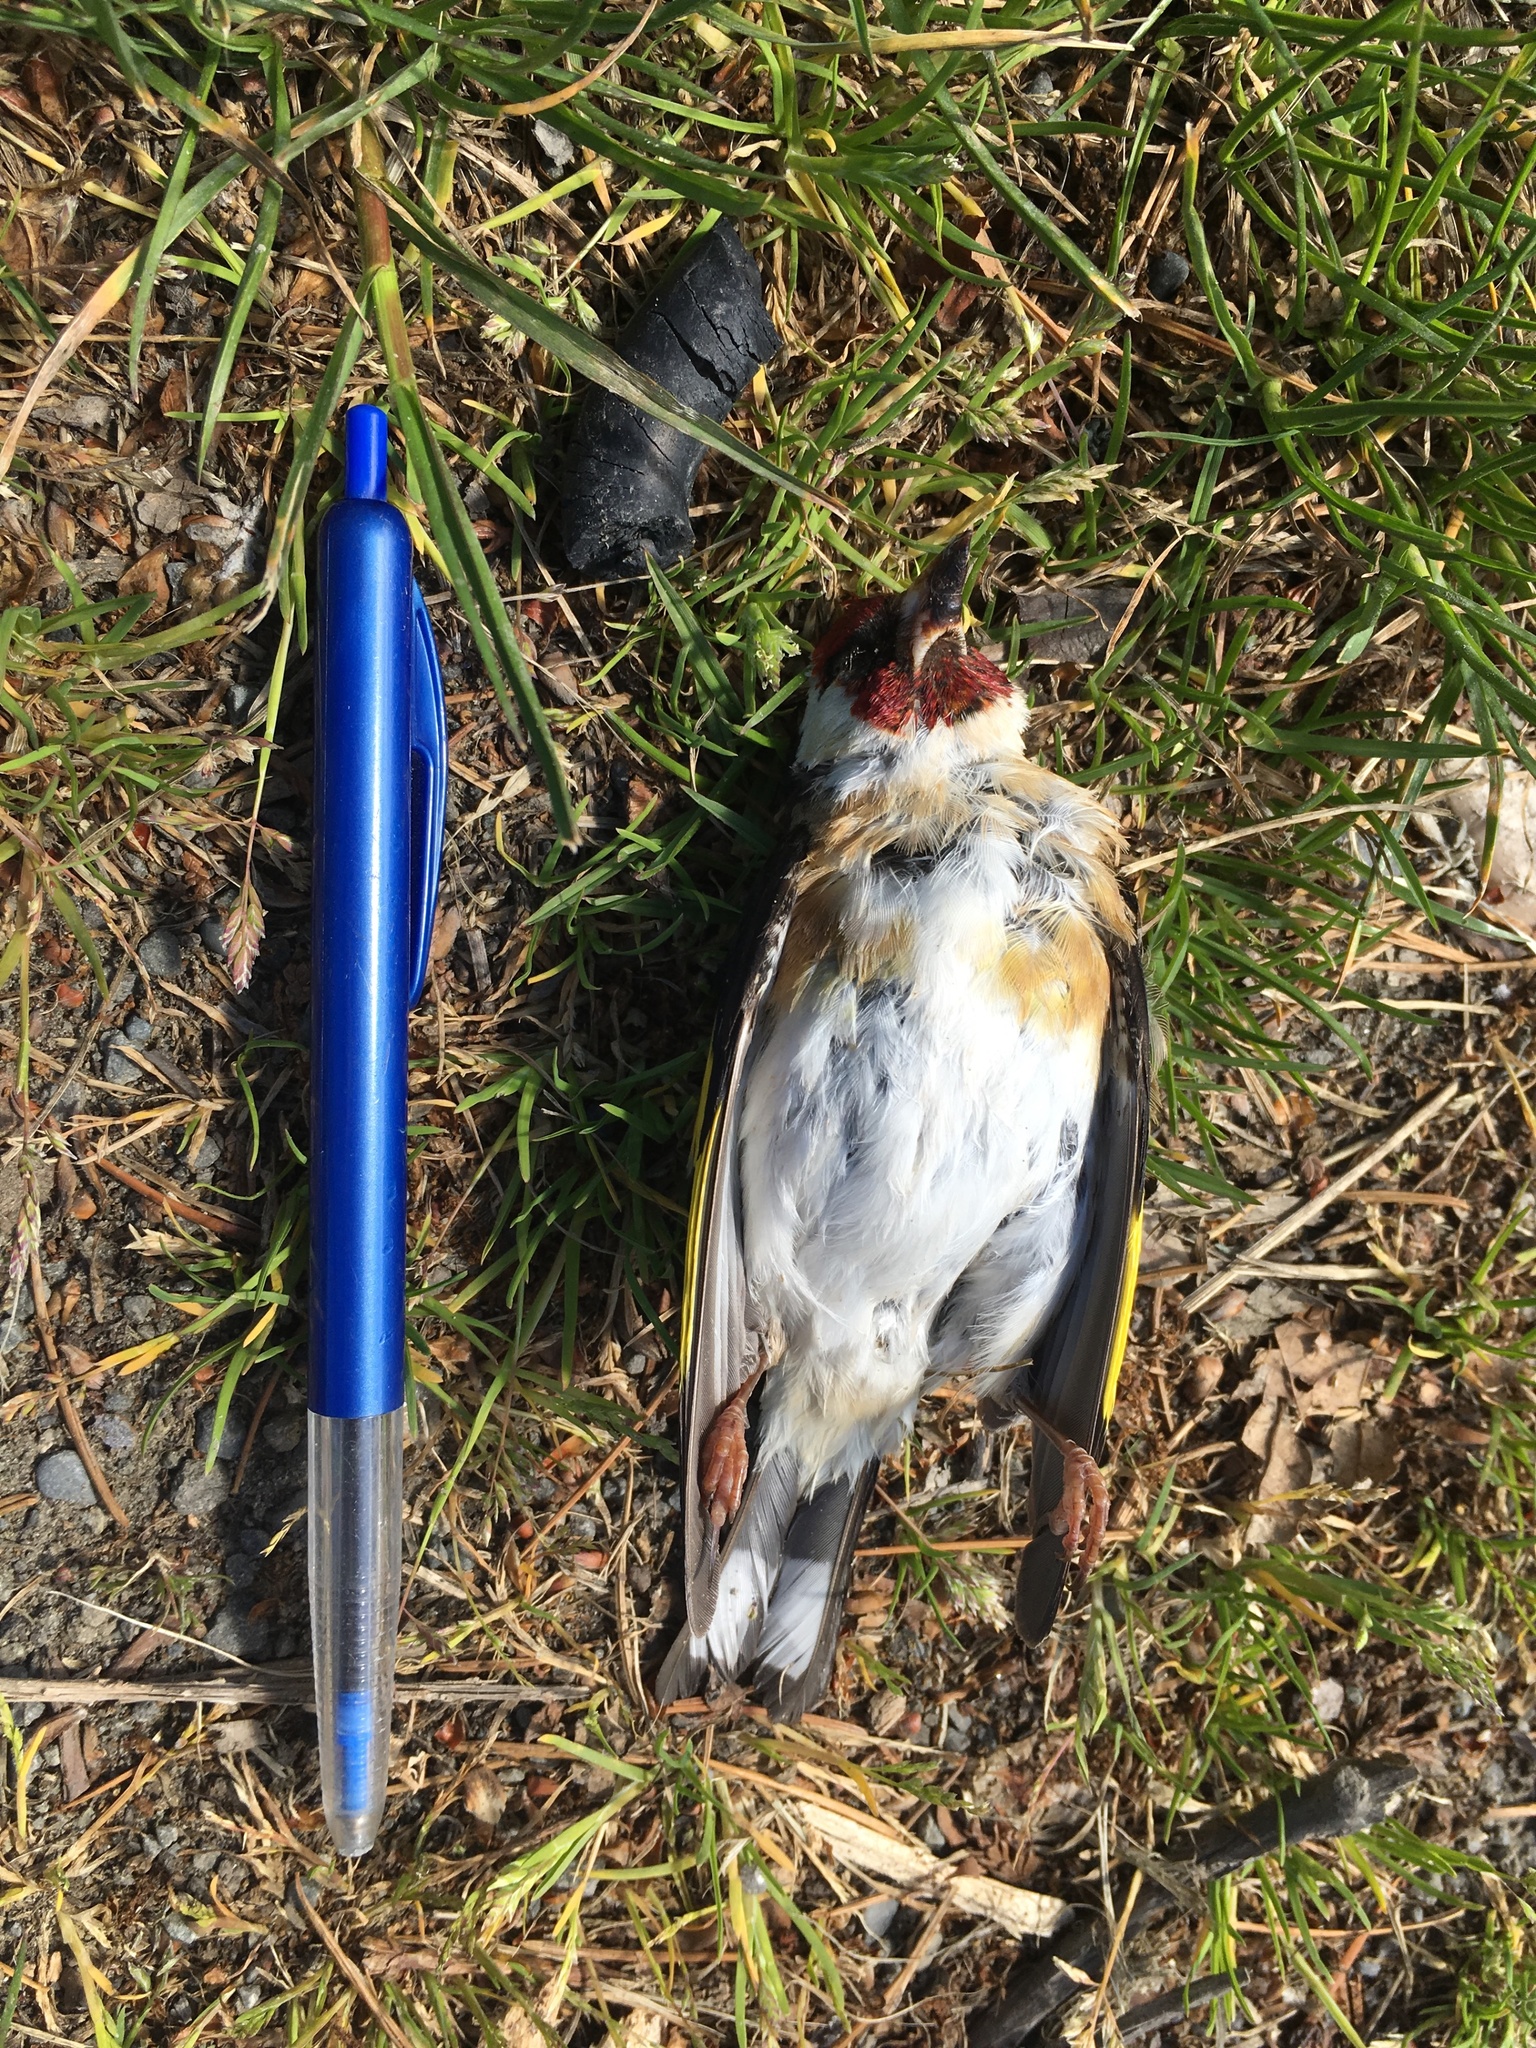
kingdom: Animalia
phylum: Chordata
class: Aves
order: Passeriformes
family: Fringillidae
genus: Carduelis
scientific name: Carduelis carduelis
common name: European goldfinch
